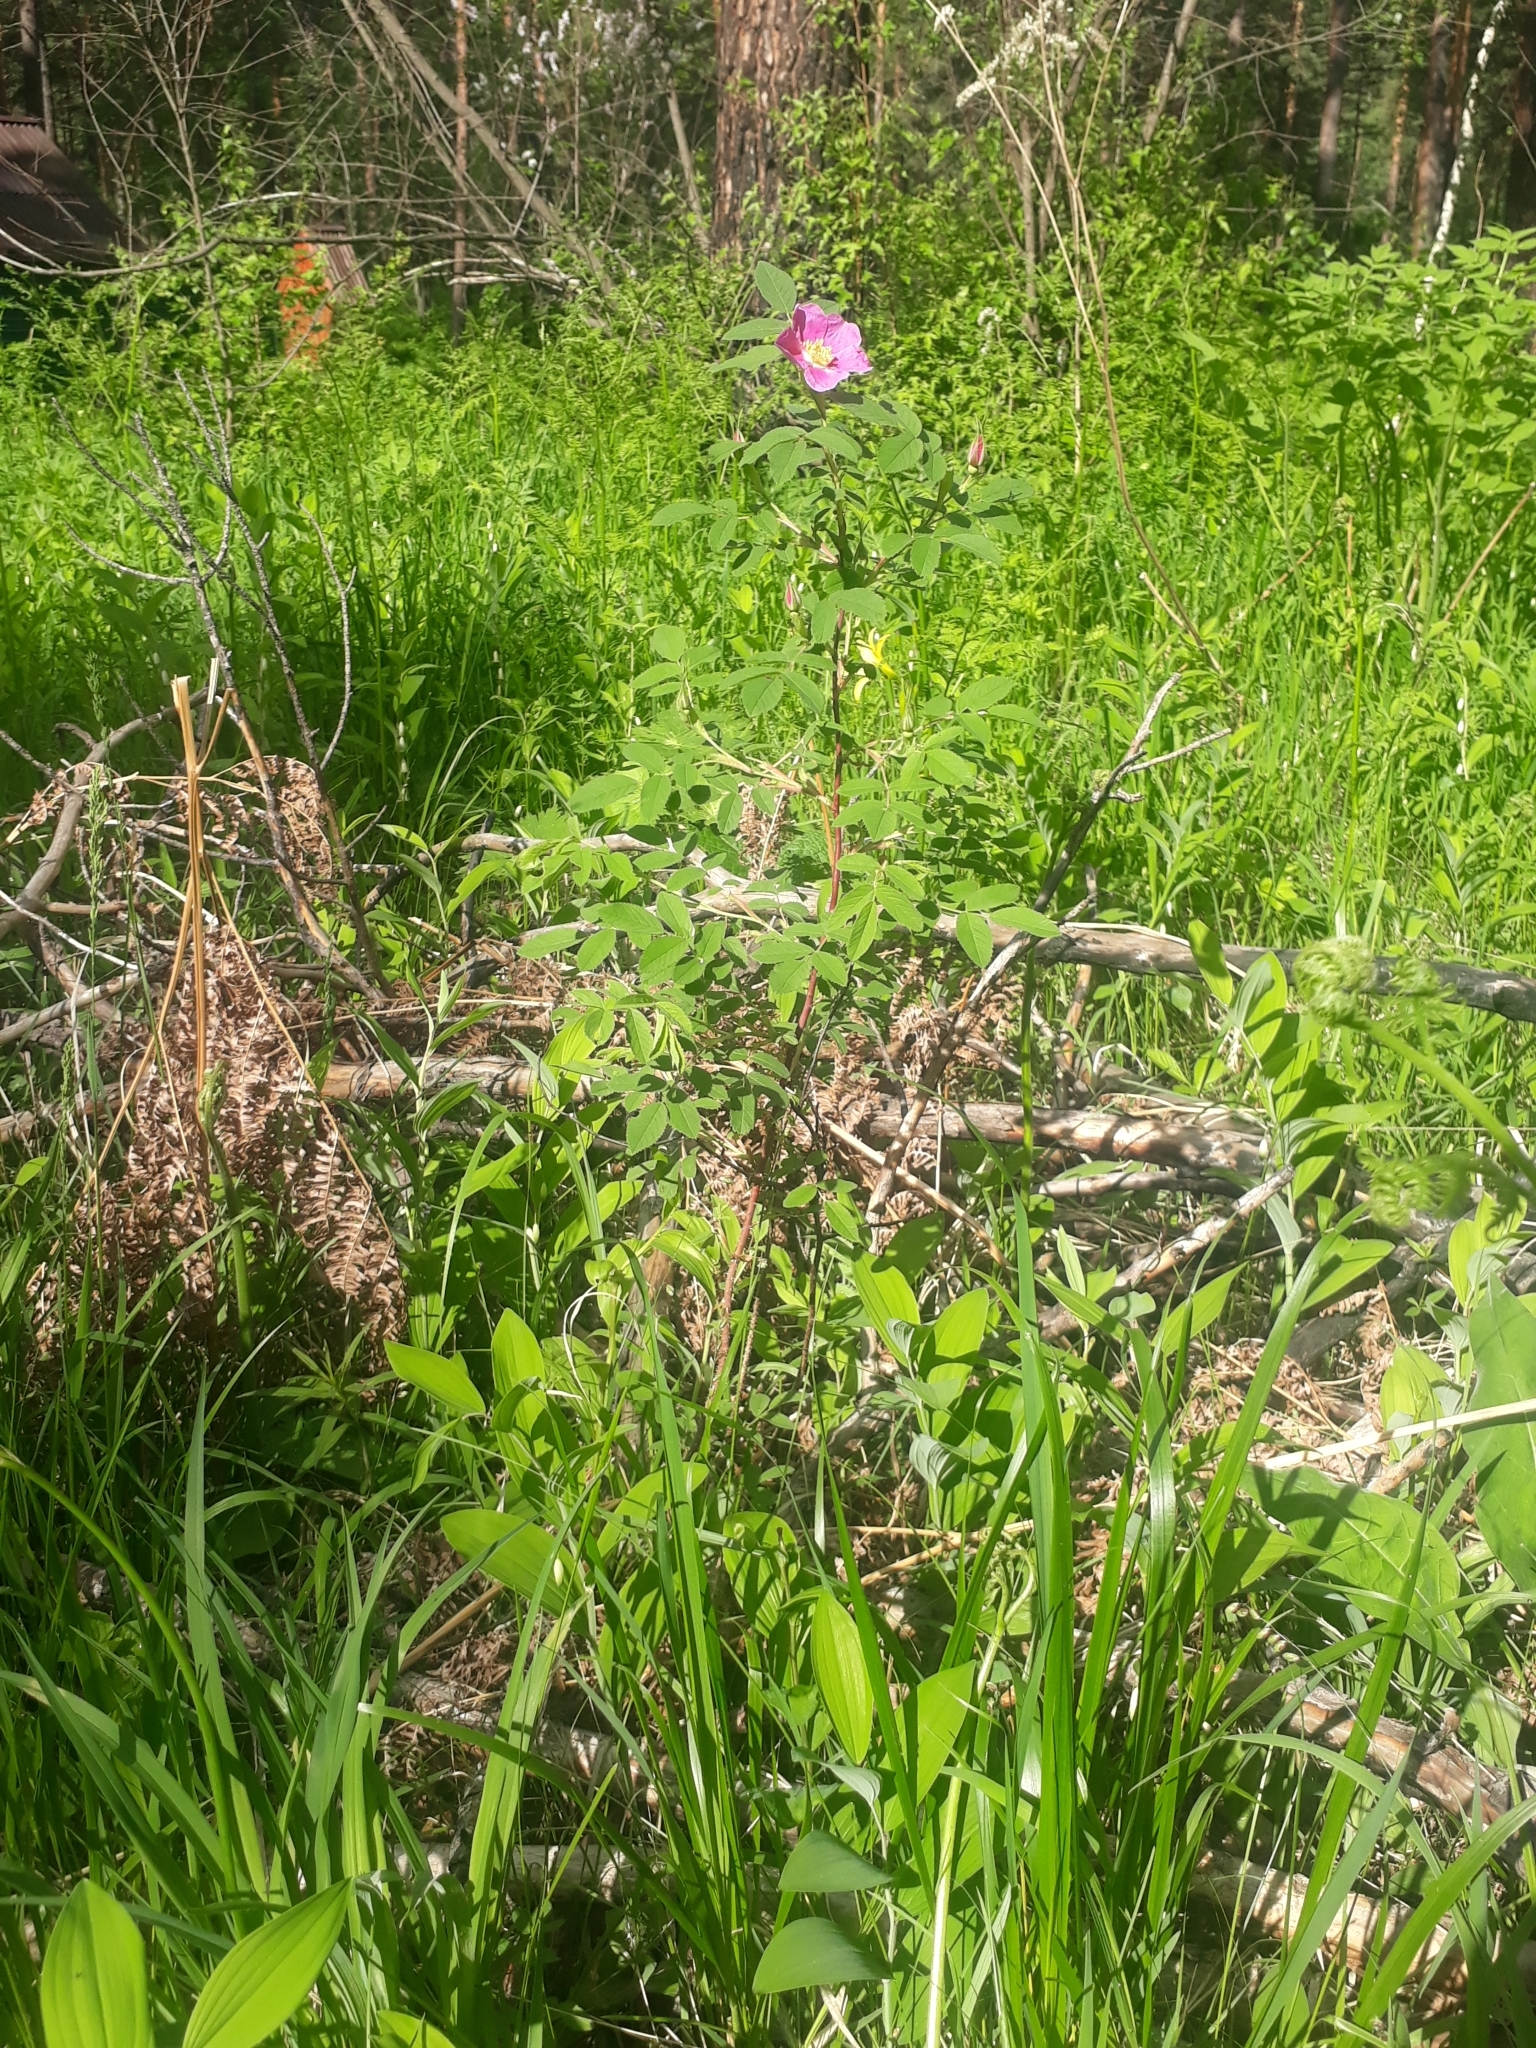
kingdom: Plantae
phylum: Tracheophyta
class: Magnoliopsida
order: Rosales
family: Rosaceae
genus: Rosa
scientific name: Rosa majalis
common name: Cinnamon rose
